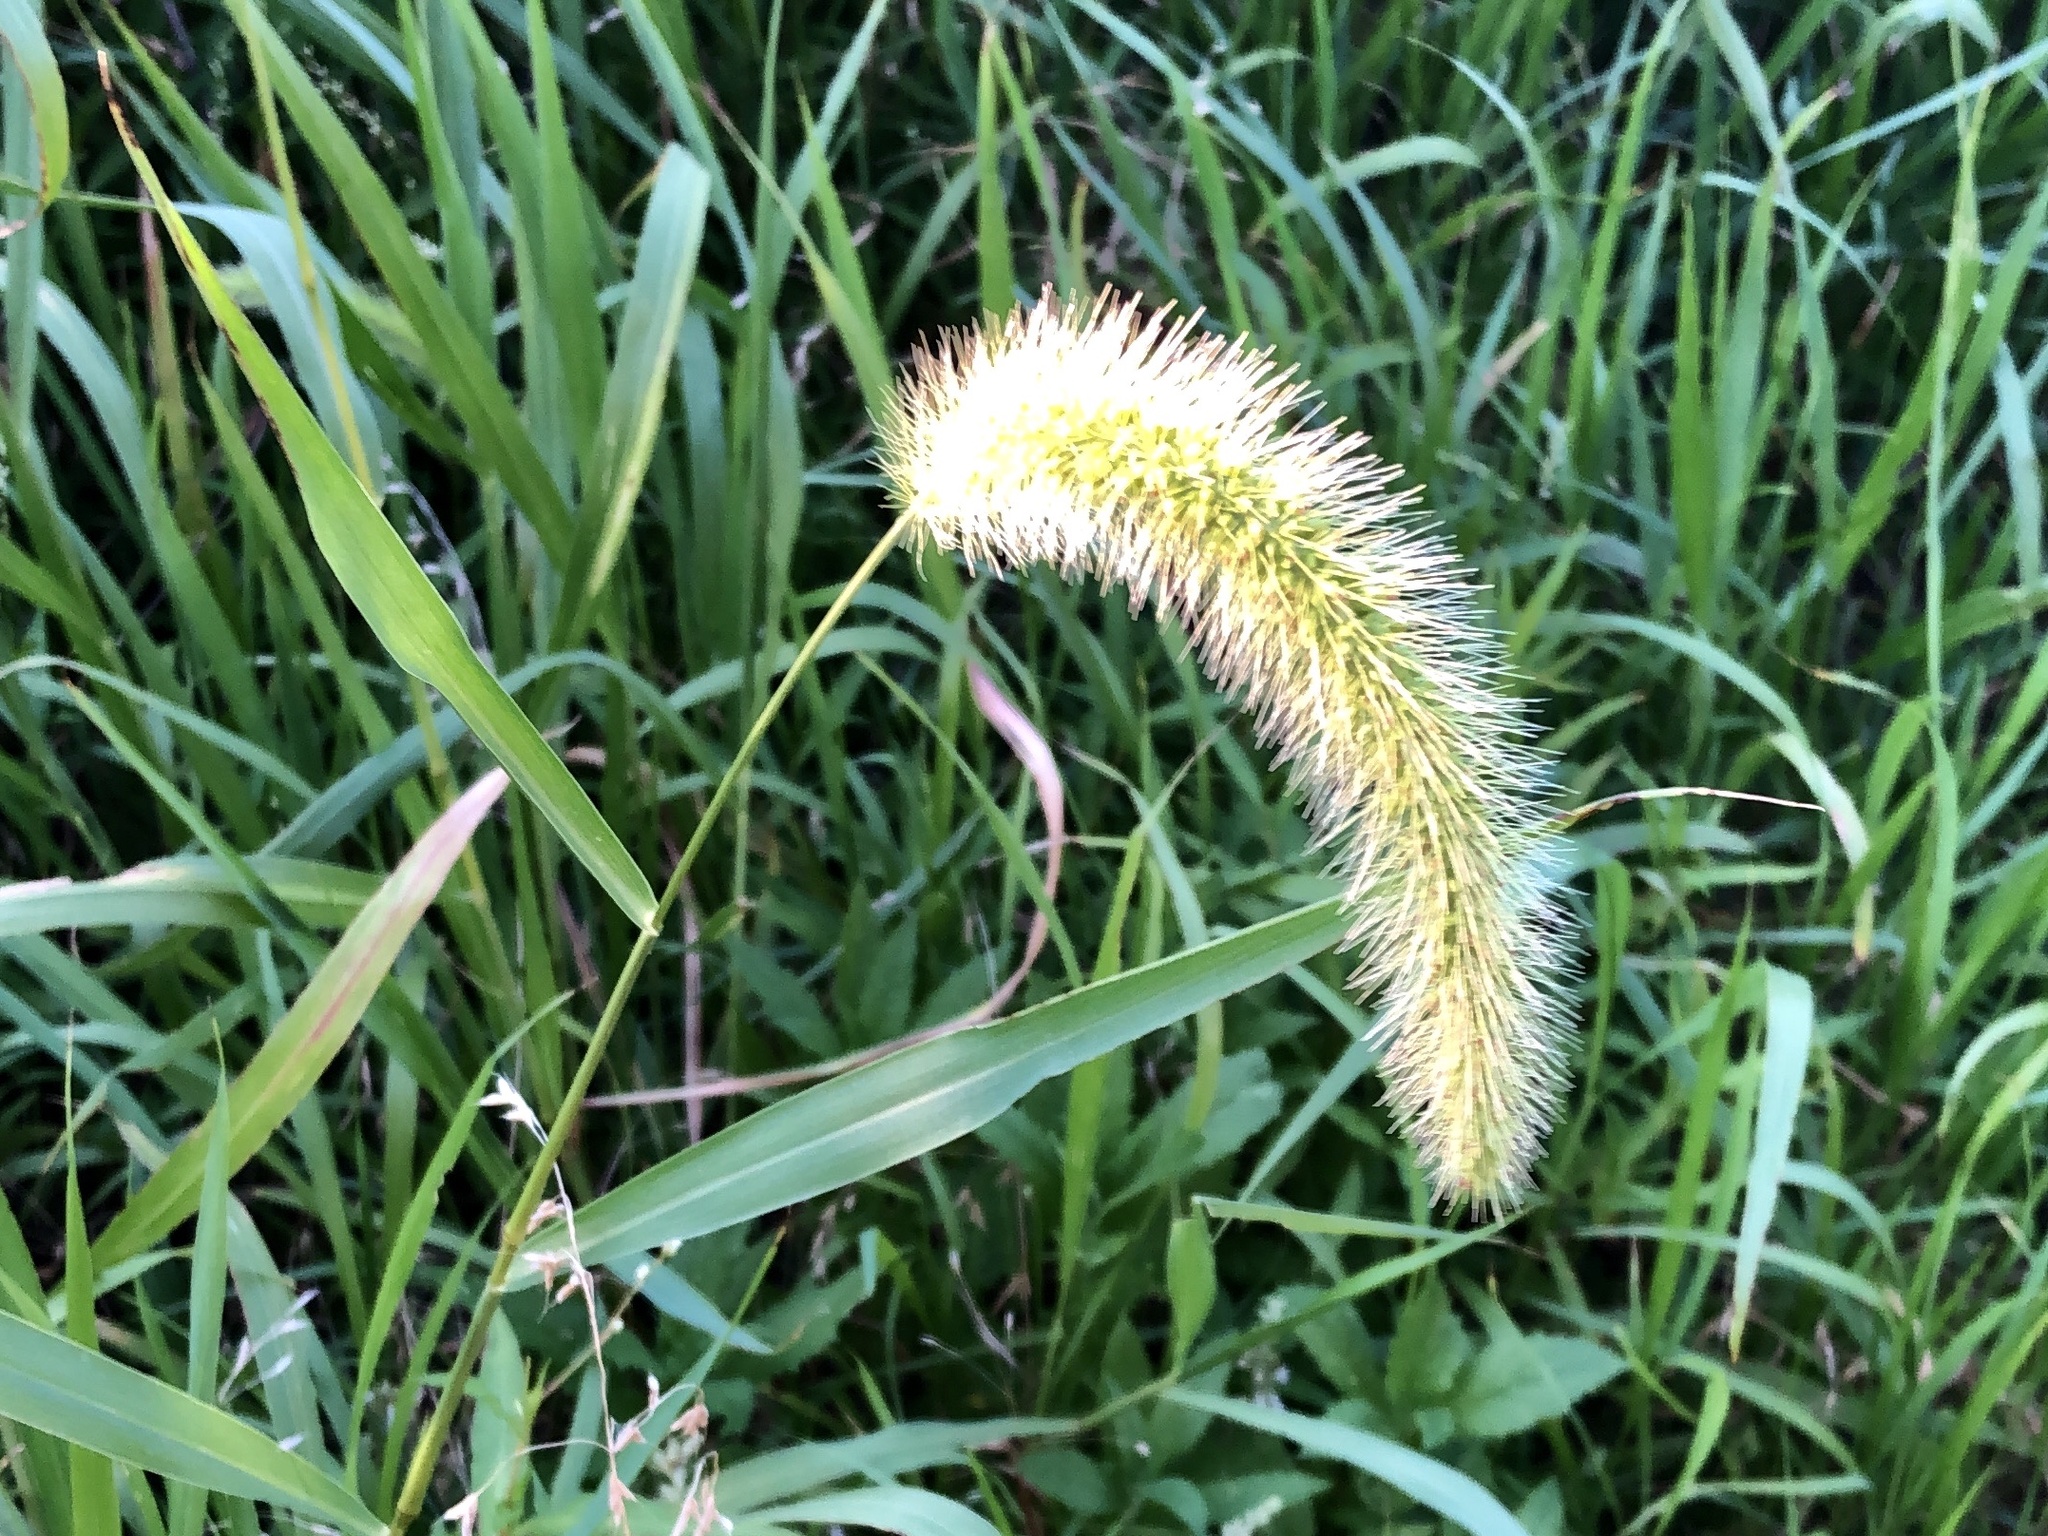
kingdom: Plantae
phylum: Tracheophyta
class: Liliopsida
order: Poales
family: Poaceae
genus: Setaria
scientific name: Setaria faberi
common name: Nodding bristle-grass
